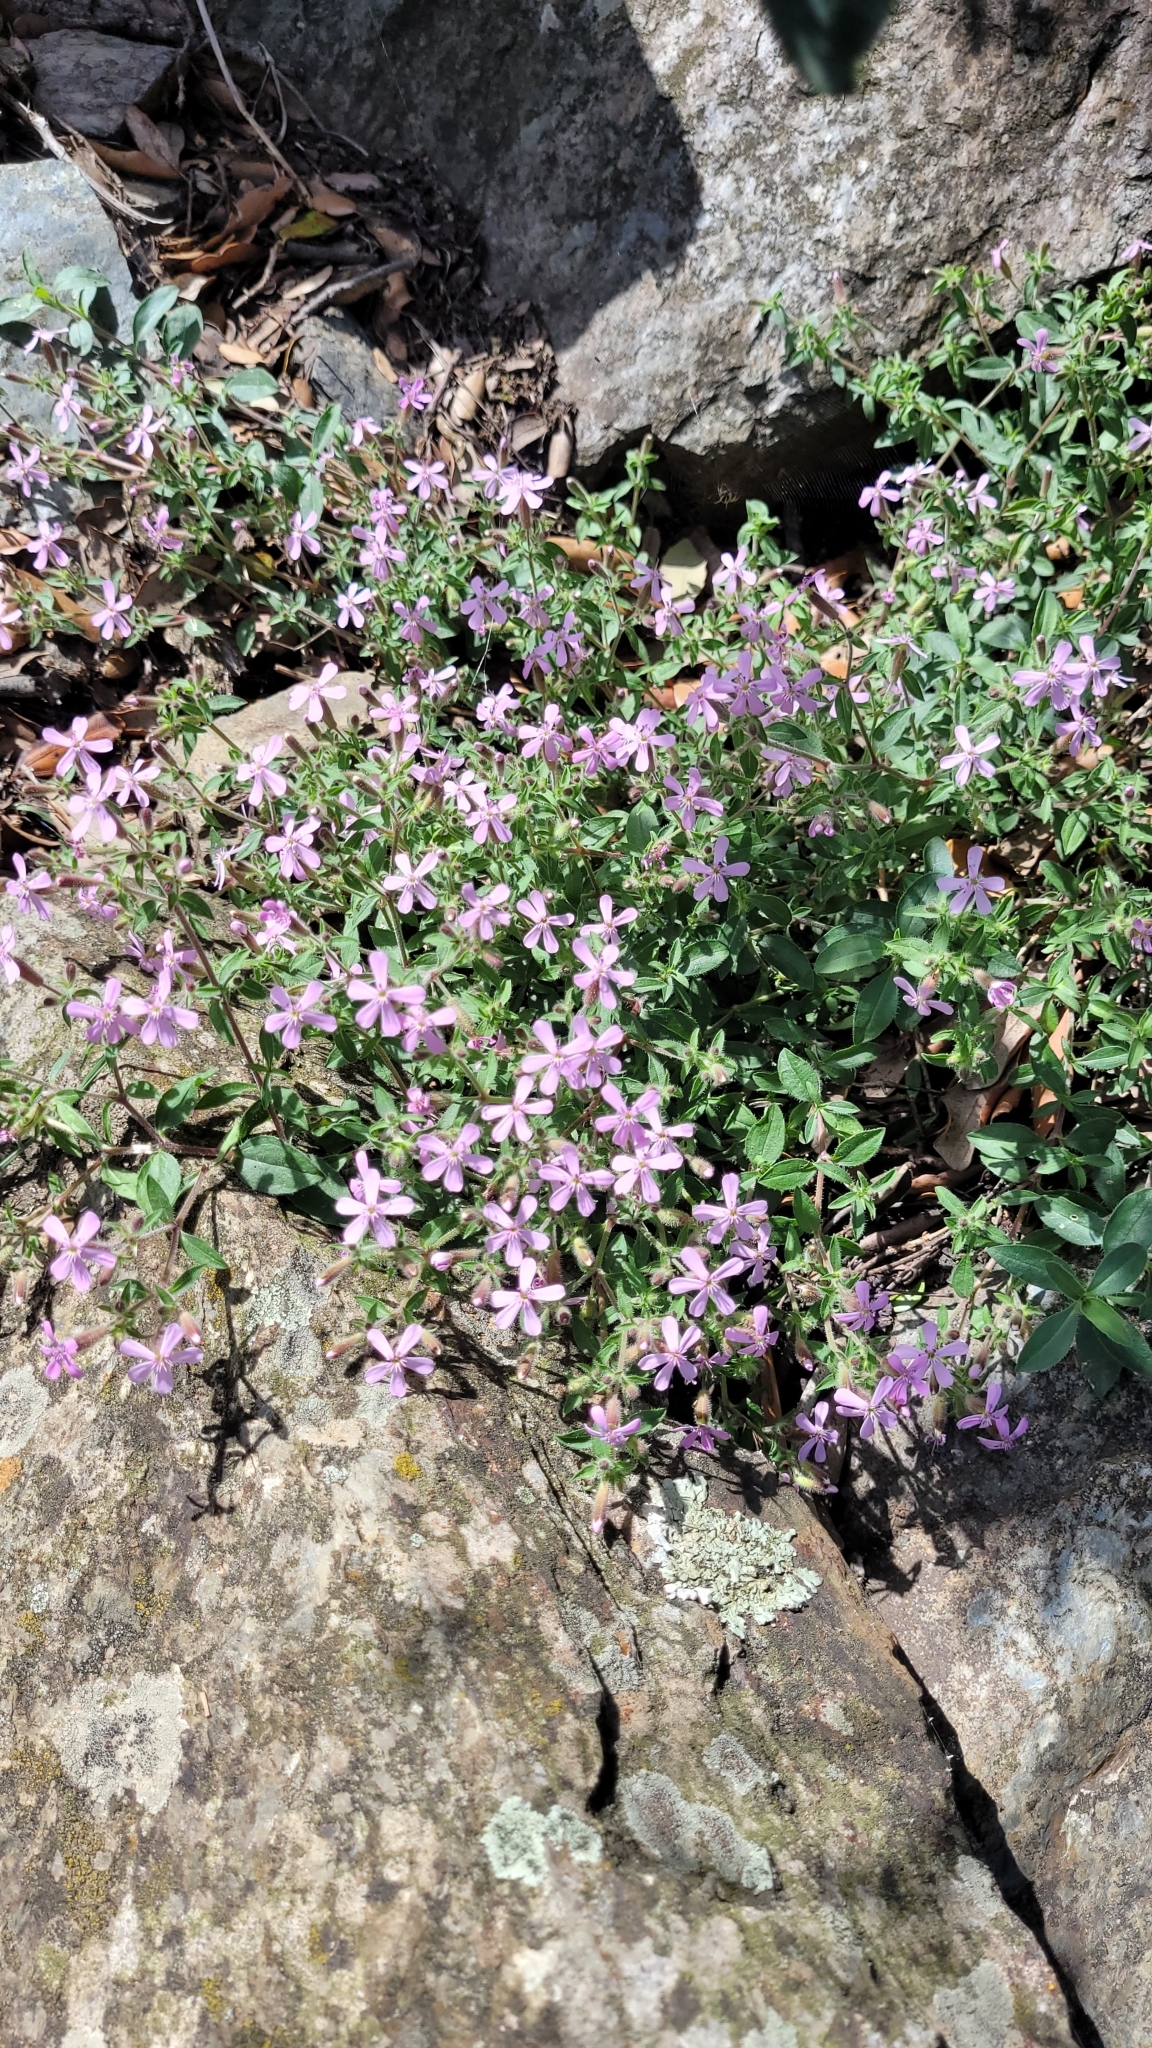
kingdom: Plantae
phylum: Tracheophyta
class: Magnoliopsida
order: Caryophyllales
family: Caryophyllaceae
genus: Saponaria
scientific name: Saponaria ocymoides
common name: Rock soapwort
